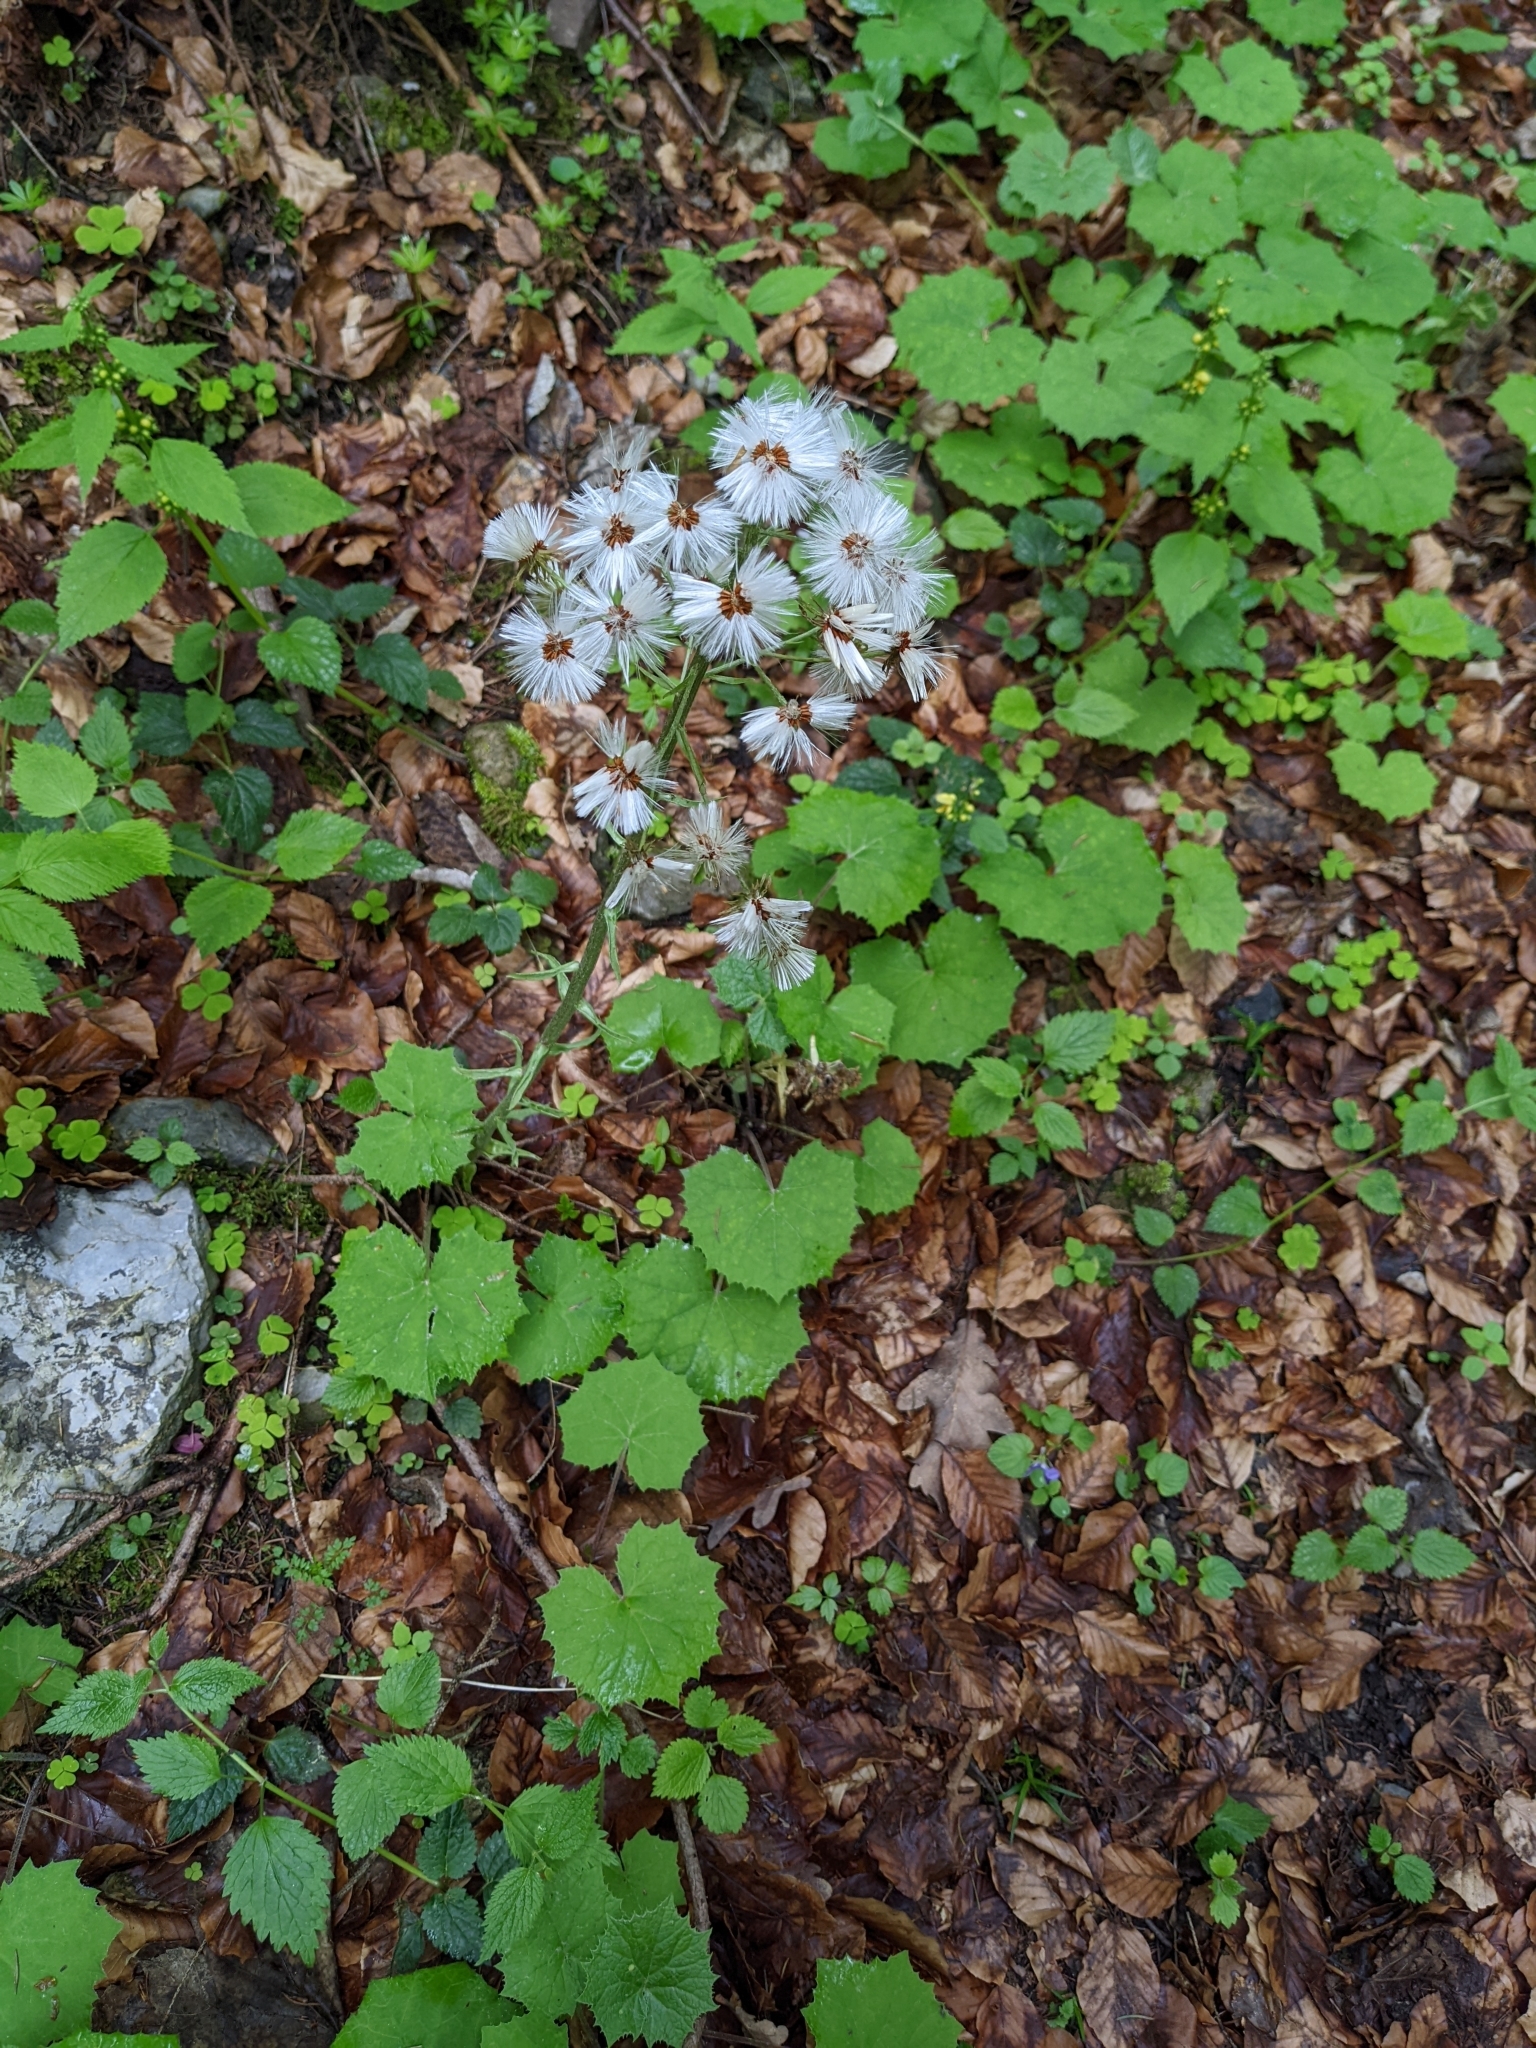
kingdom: Plantae
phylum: Tracheophyta
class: Magnoliopsida
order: Asterales
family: Asteraceae
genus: Petasites
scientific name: Petasites albus
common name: White butterbur
